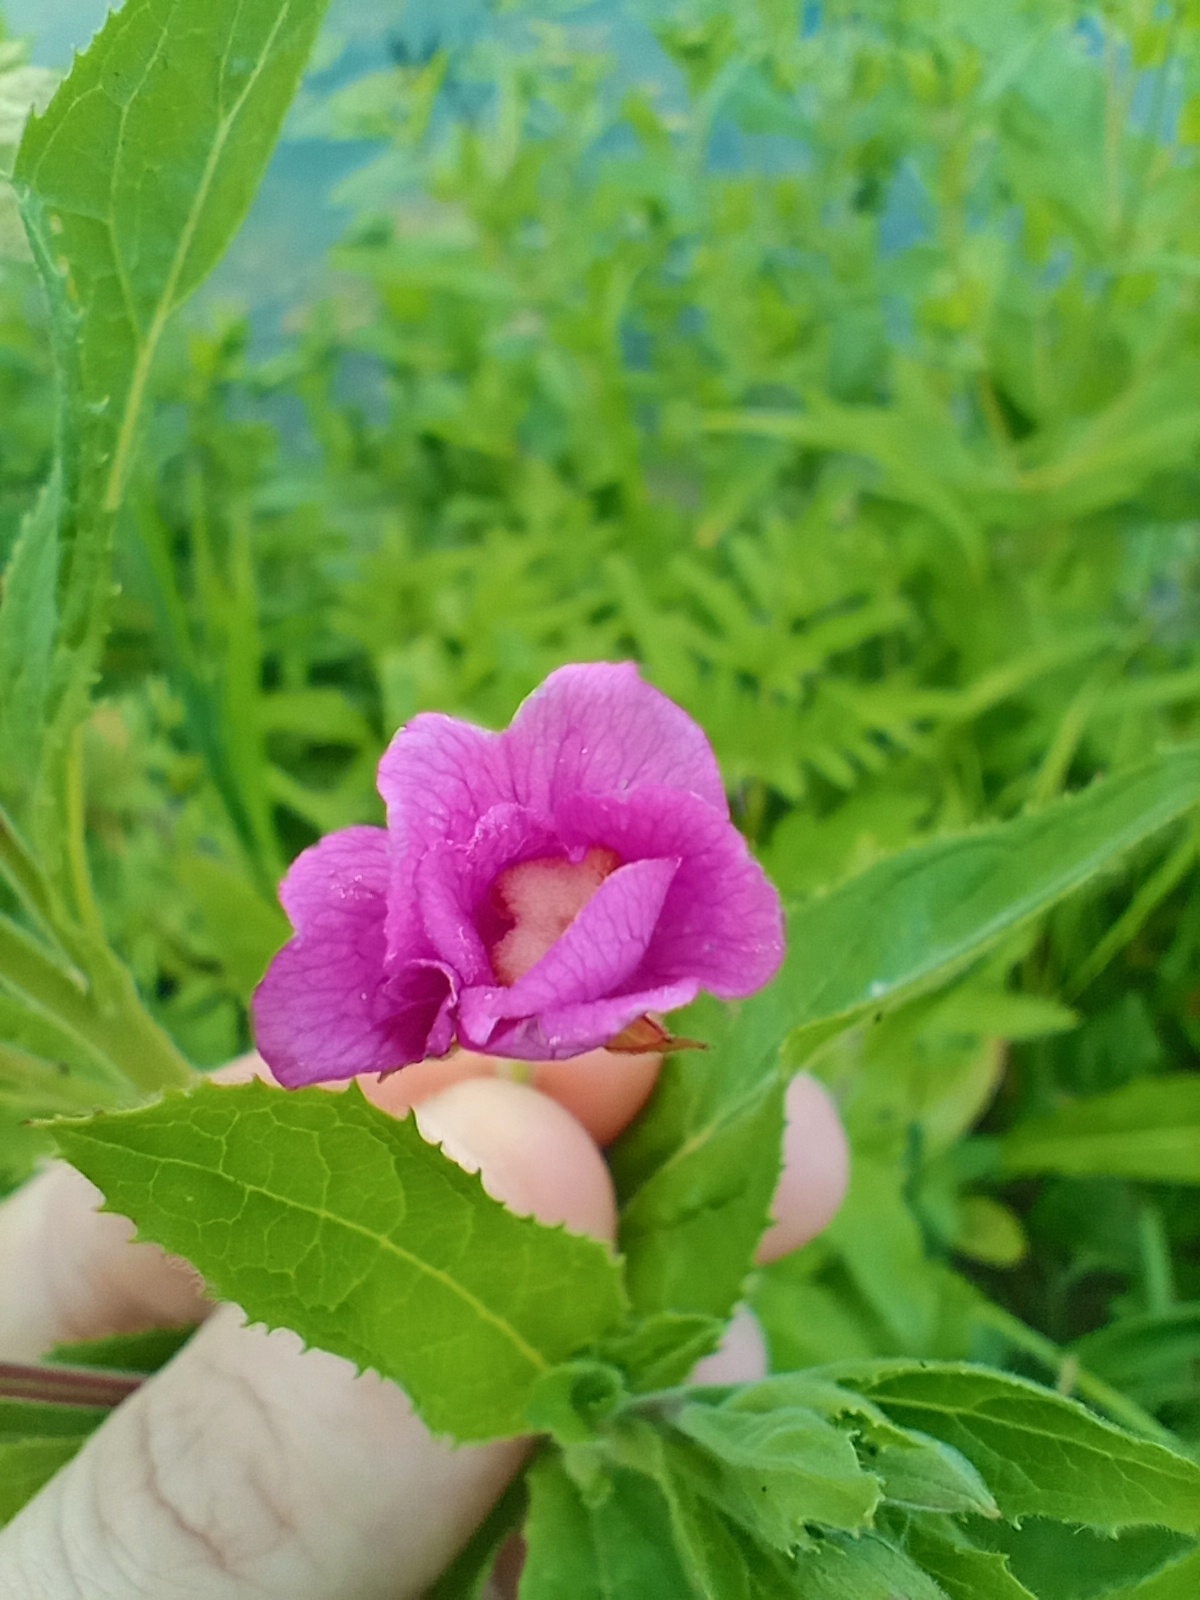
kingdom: Plantae
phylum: Tracheophyta
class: Magnoliopsida
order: Myrtales
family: Onagraceae
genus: Epilobium
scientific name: Epilobium hirsutum
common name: Great willowherb
